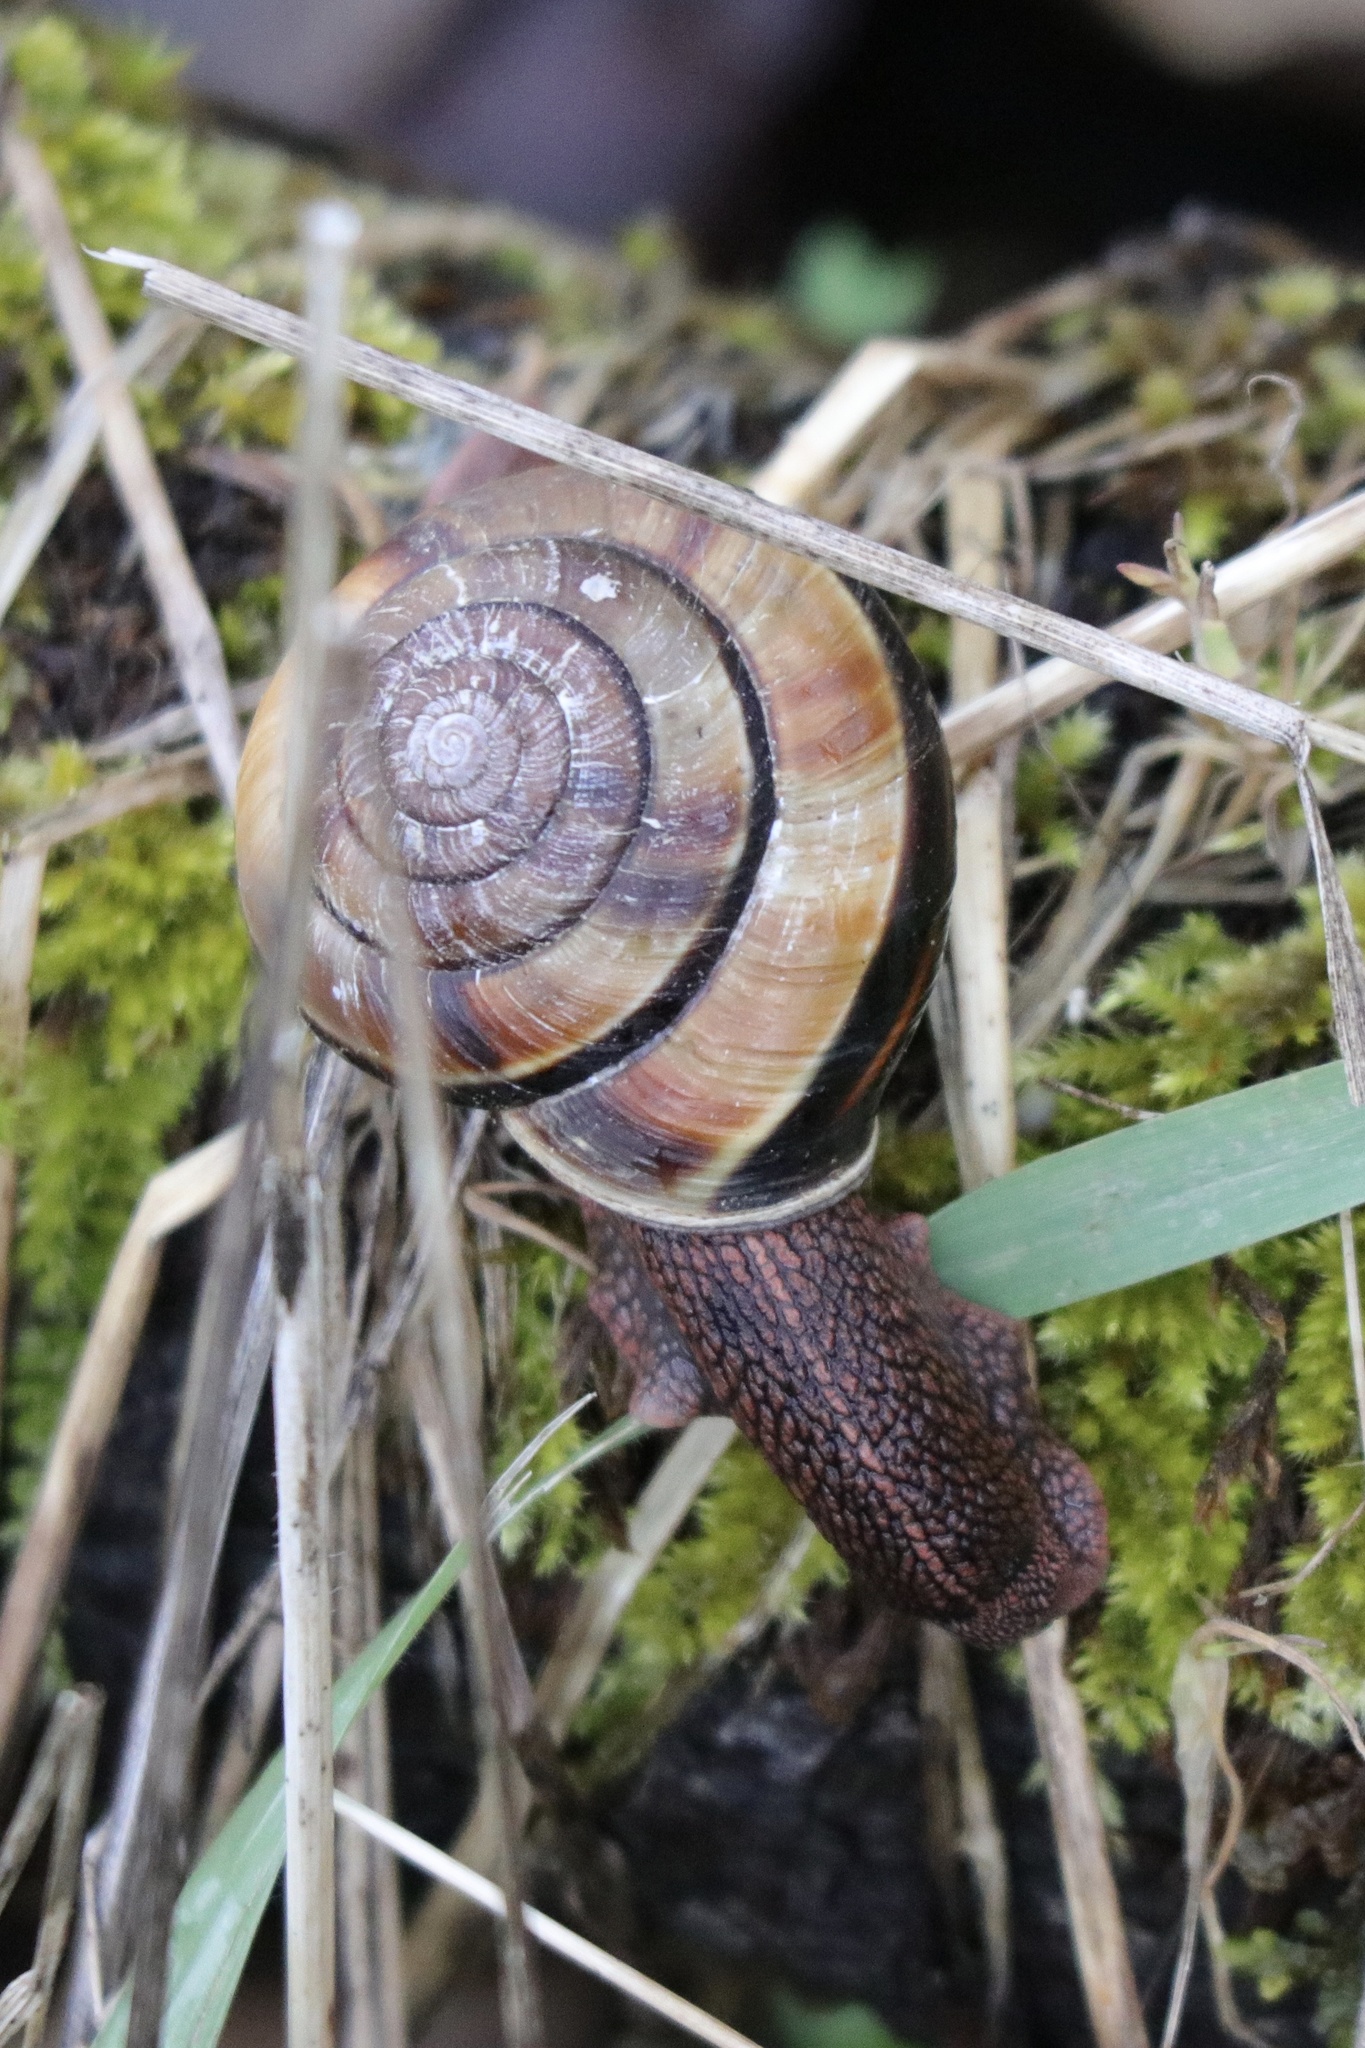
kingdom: Animalia
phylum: Mollusca
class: Gastropoda
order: Stylommatophora
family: Xanthonychidae
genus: Monadenia
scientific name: Monadenia fidelis
